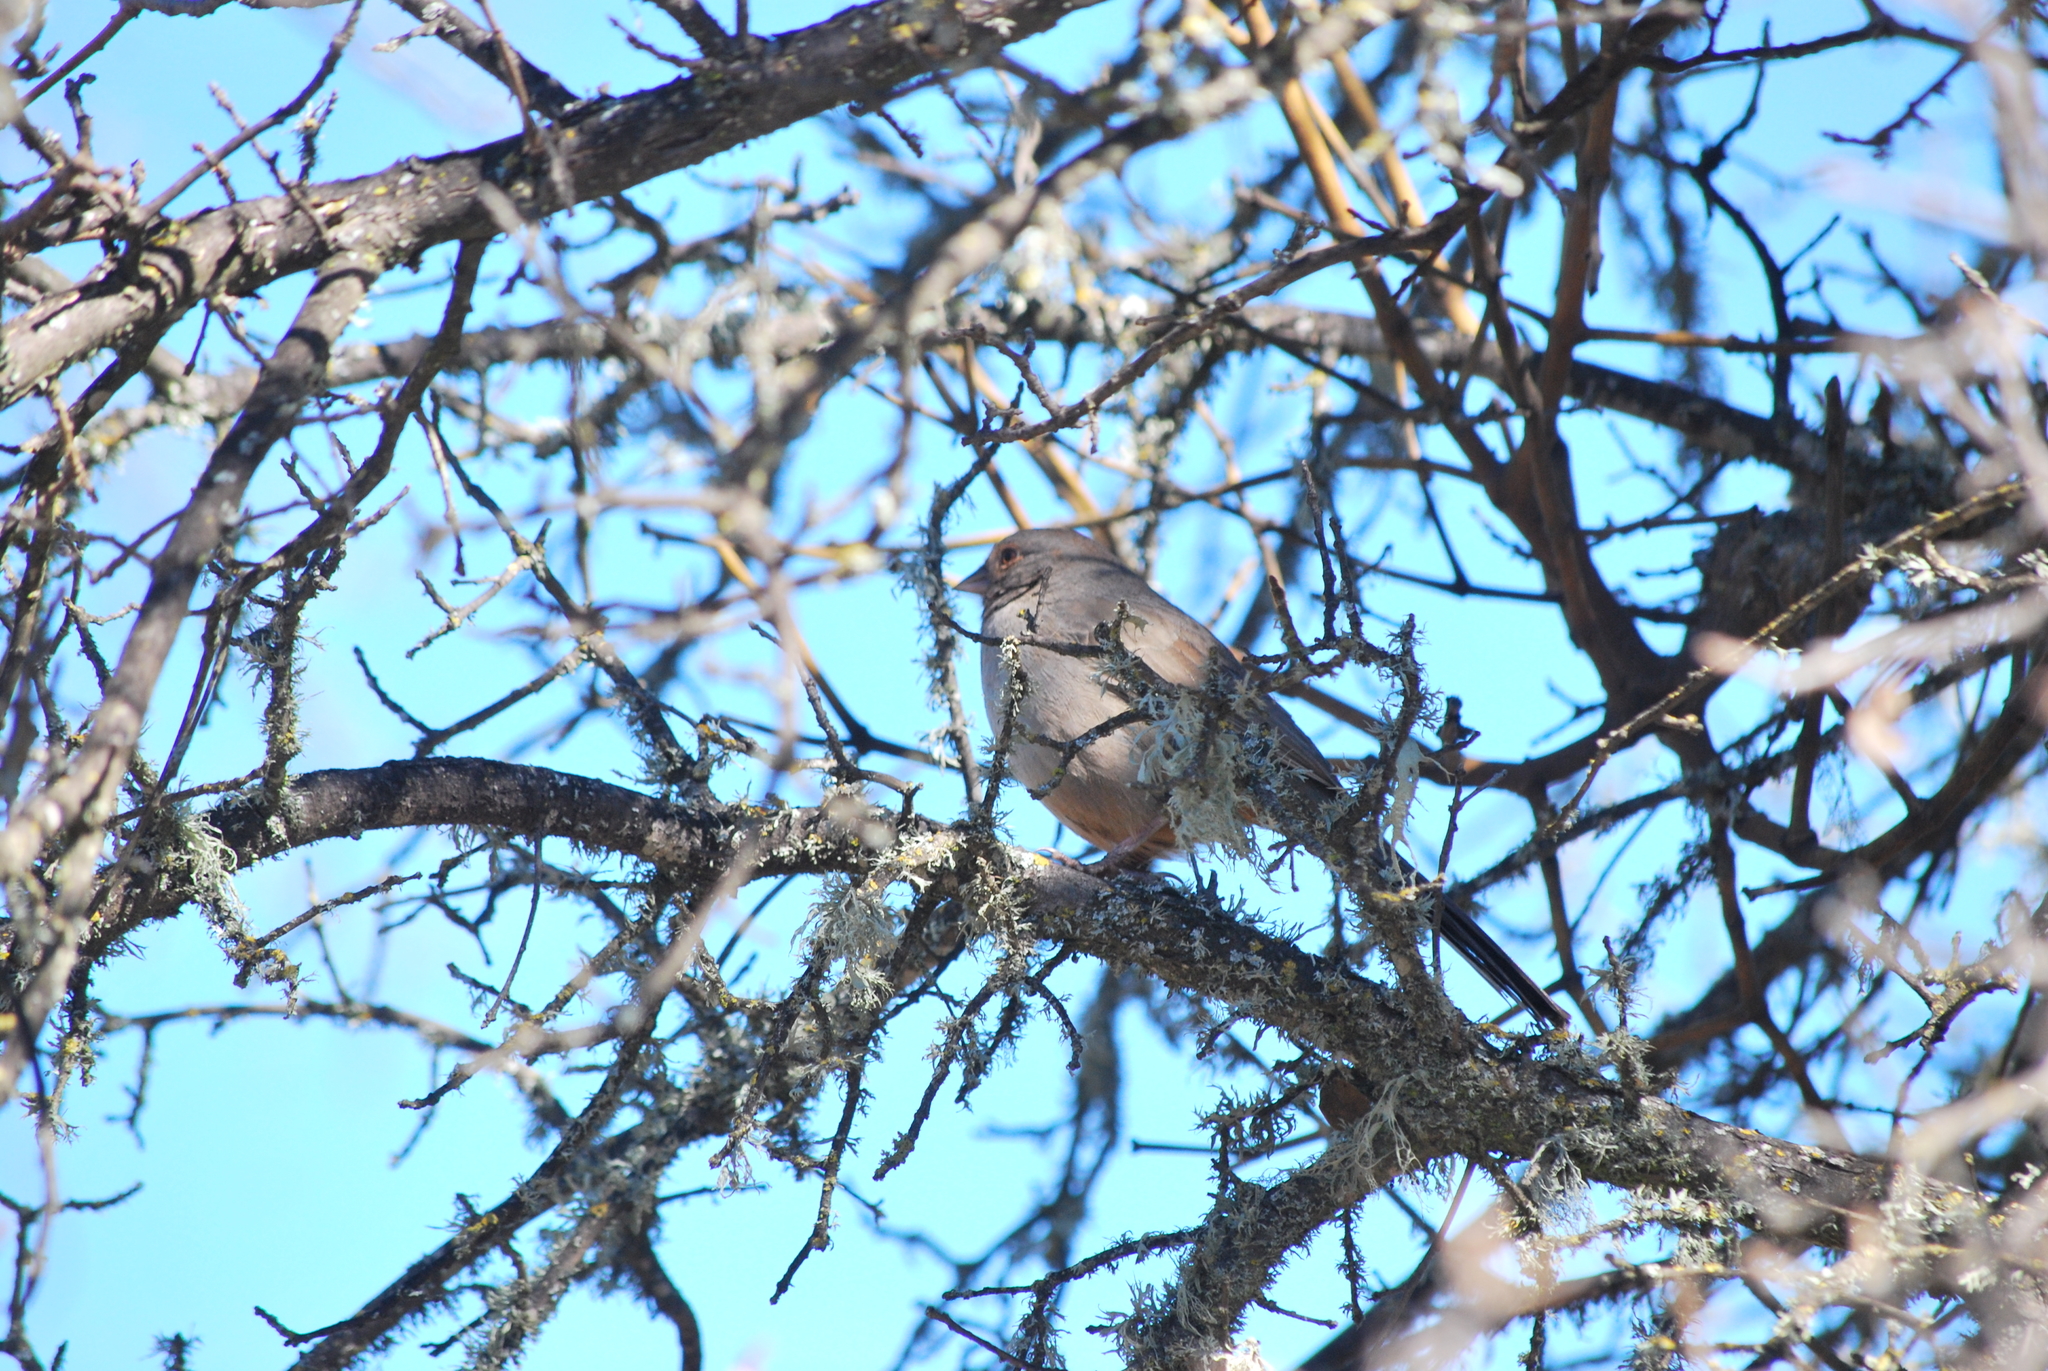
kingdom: Animalia
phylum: Chordata
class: Aves
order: Passeriformes
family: Passerellidae
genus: Melozone
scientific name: Melozone crissalis
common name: California towhee
